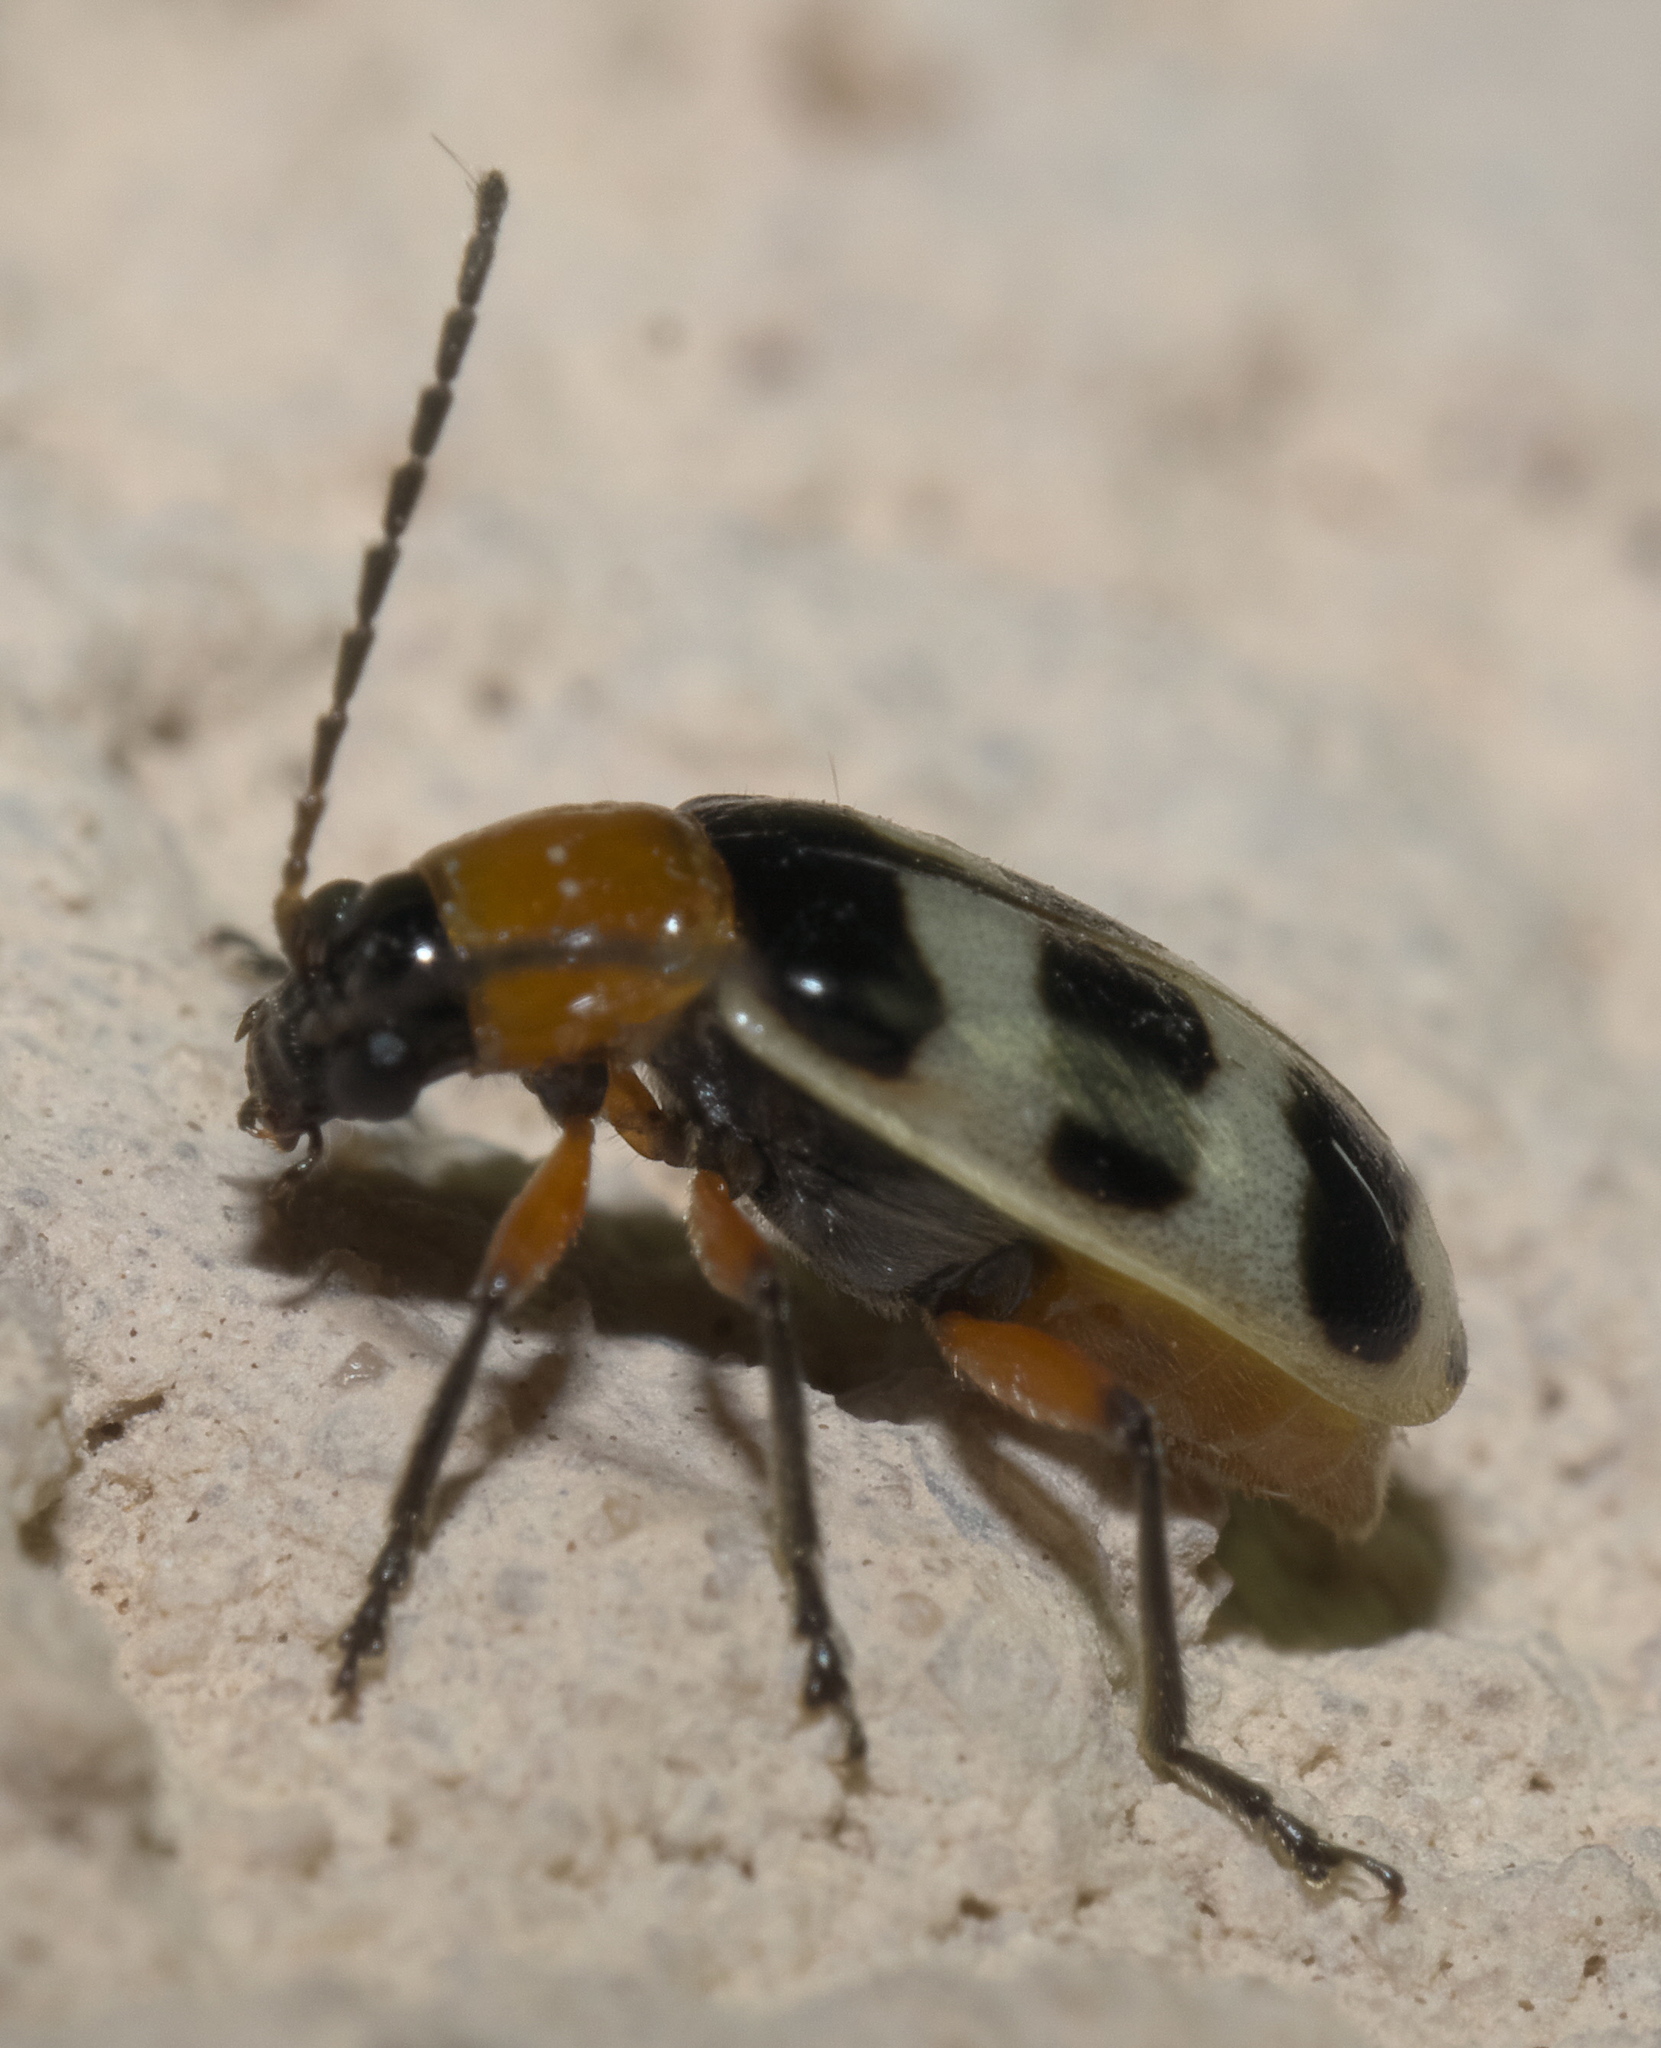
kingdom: Animalia
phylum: Arthropoda
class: Insecta
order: Coleoptera
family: Chrysomelidae
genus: Paranapiacaba
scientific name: Paranapiacaba tricincta
